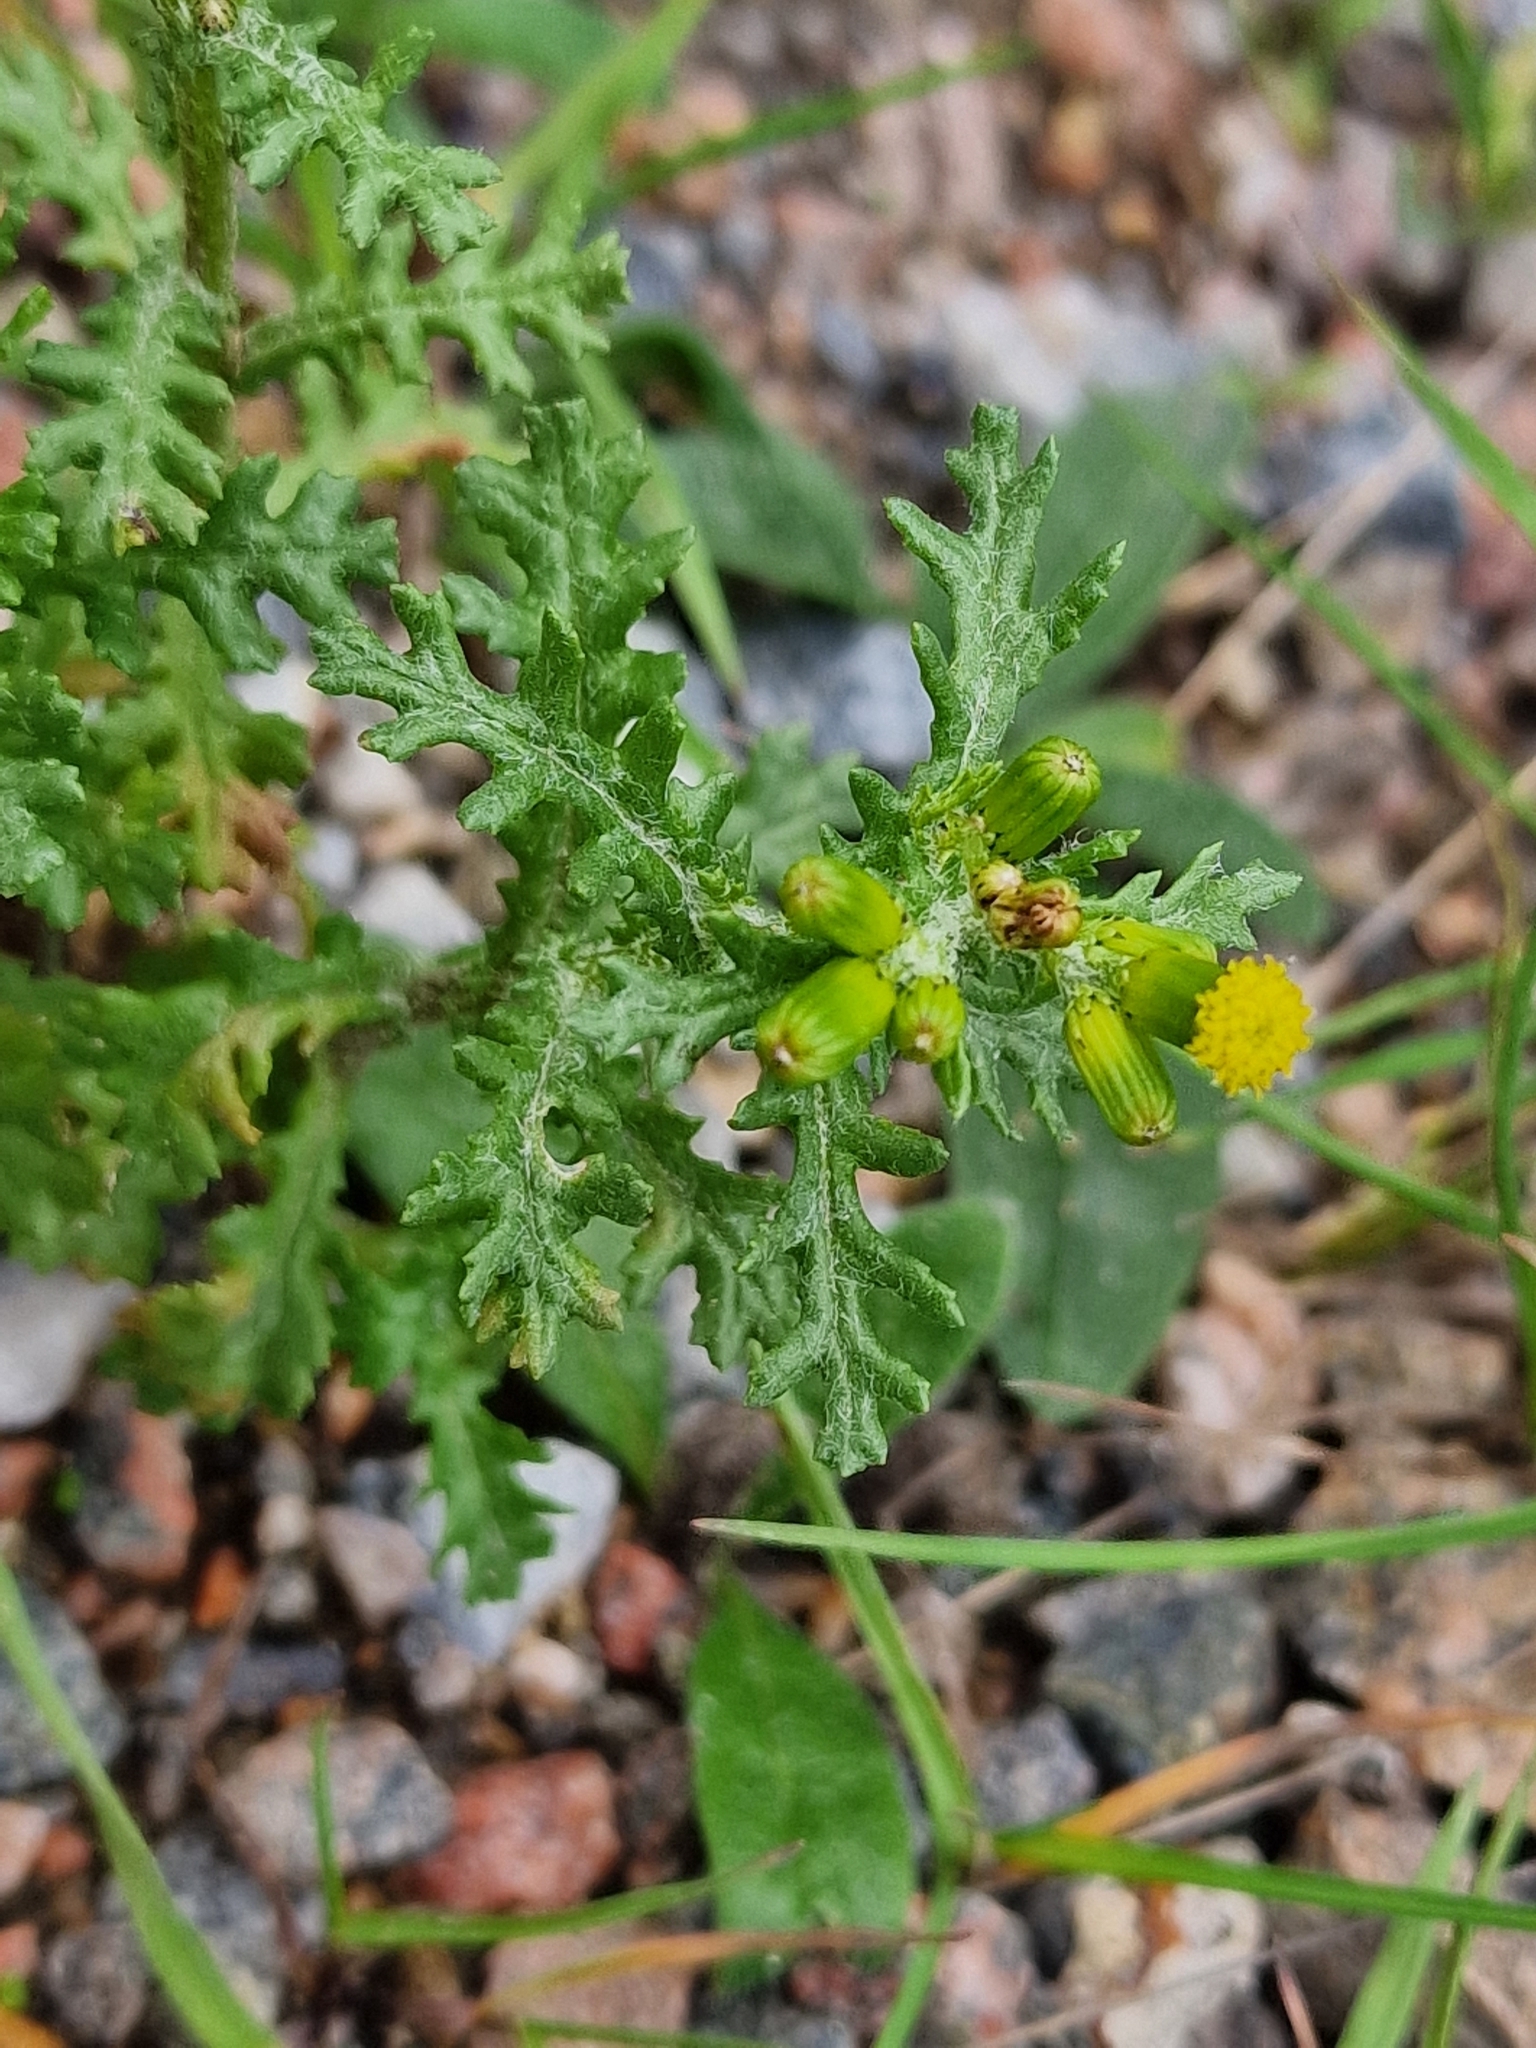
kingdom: Plantae
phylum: Tracheophyta
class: Magnoliopsida
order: Asterales
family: Asteraceae
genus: Senecio
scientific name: Senecio vulgaris
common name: Old-man-in-the-spring
